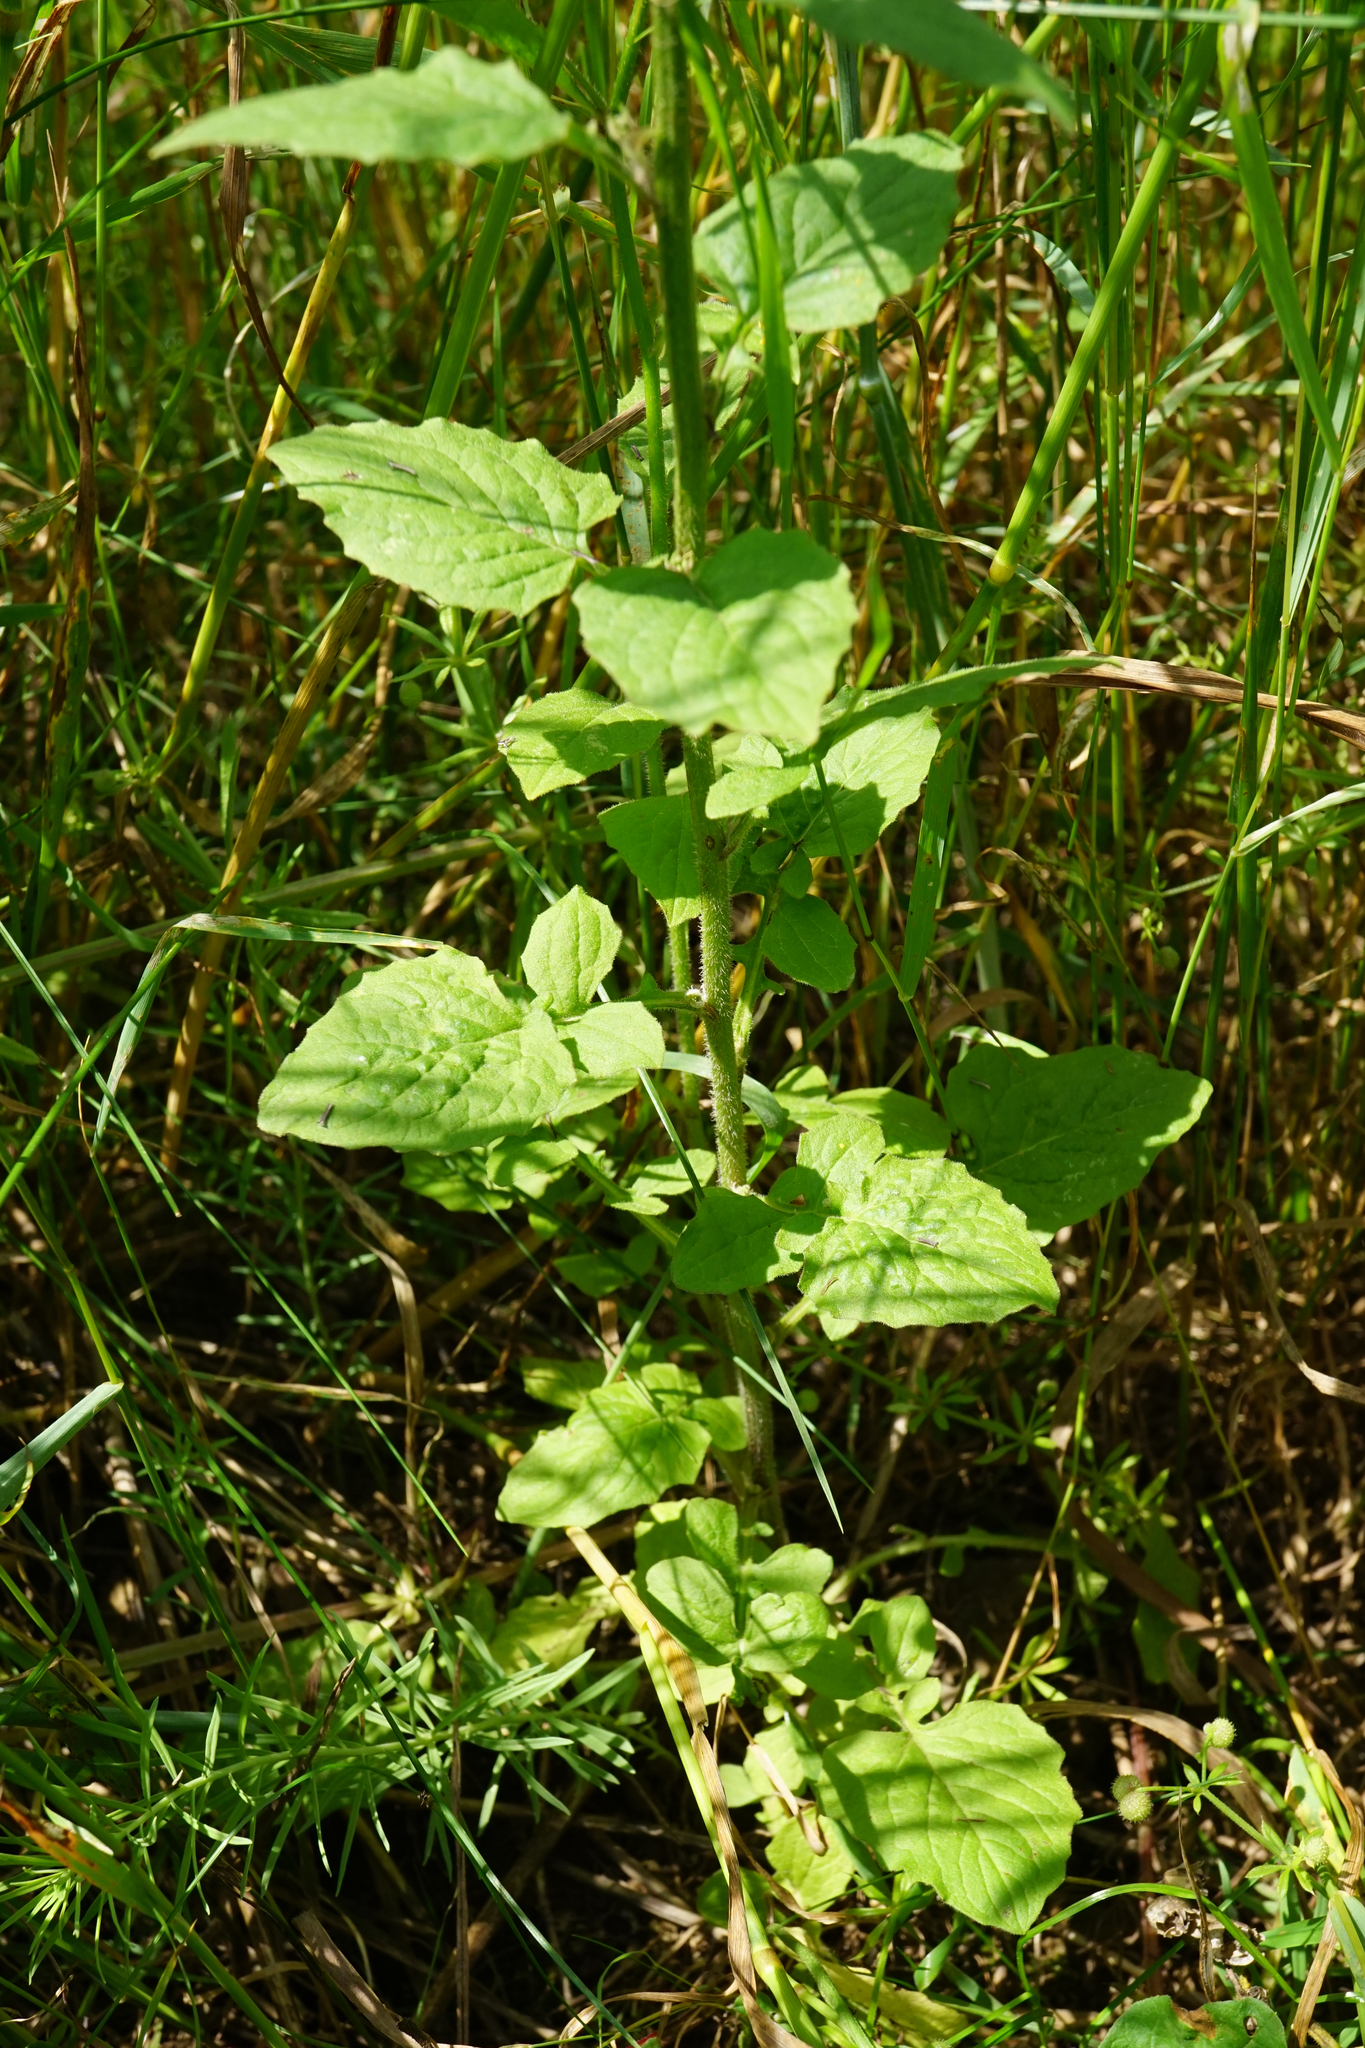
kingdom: Plantae
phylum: Tracheophyta
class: Magnoliopsida
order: Asterales
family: Asteraceae
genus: Lapsana
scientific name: Lapsana communis
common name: Nipplewort
